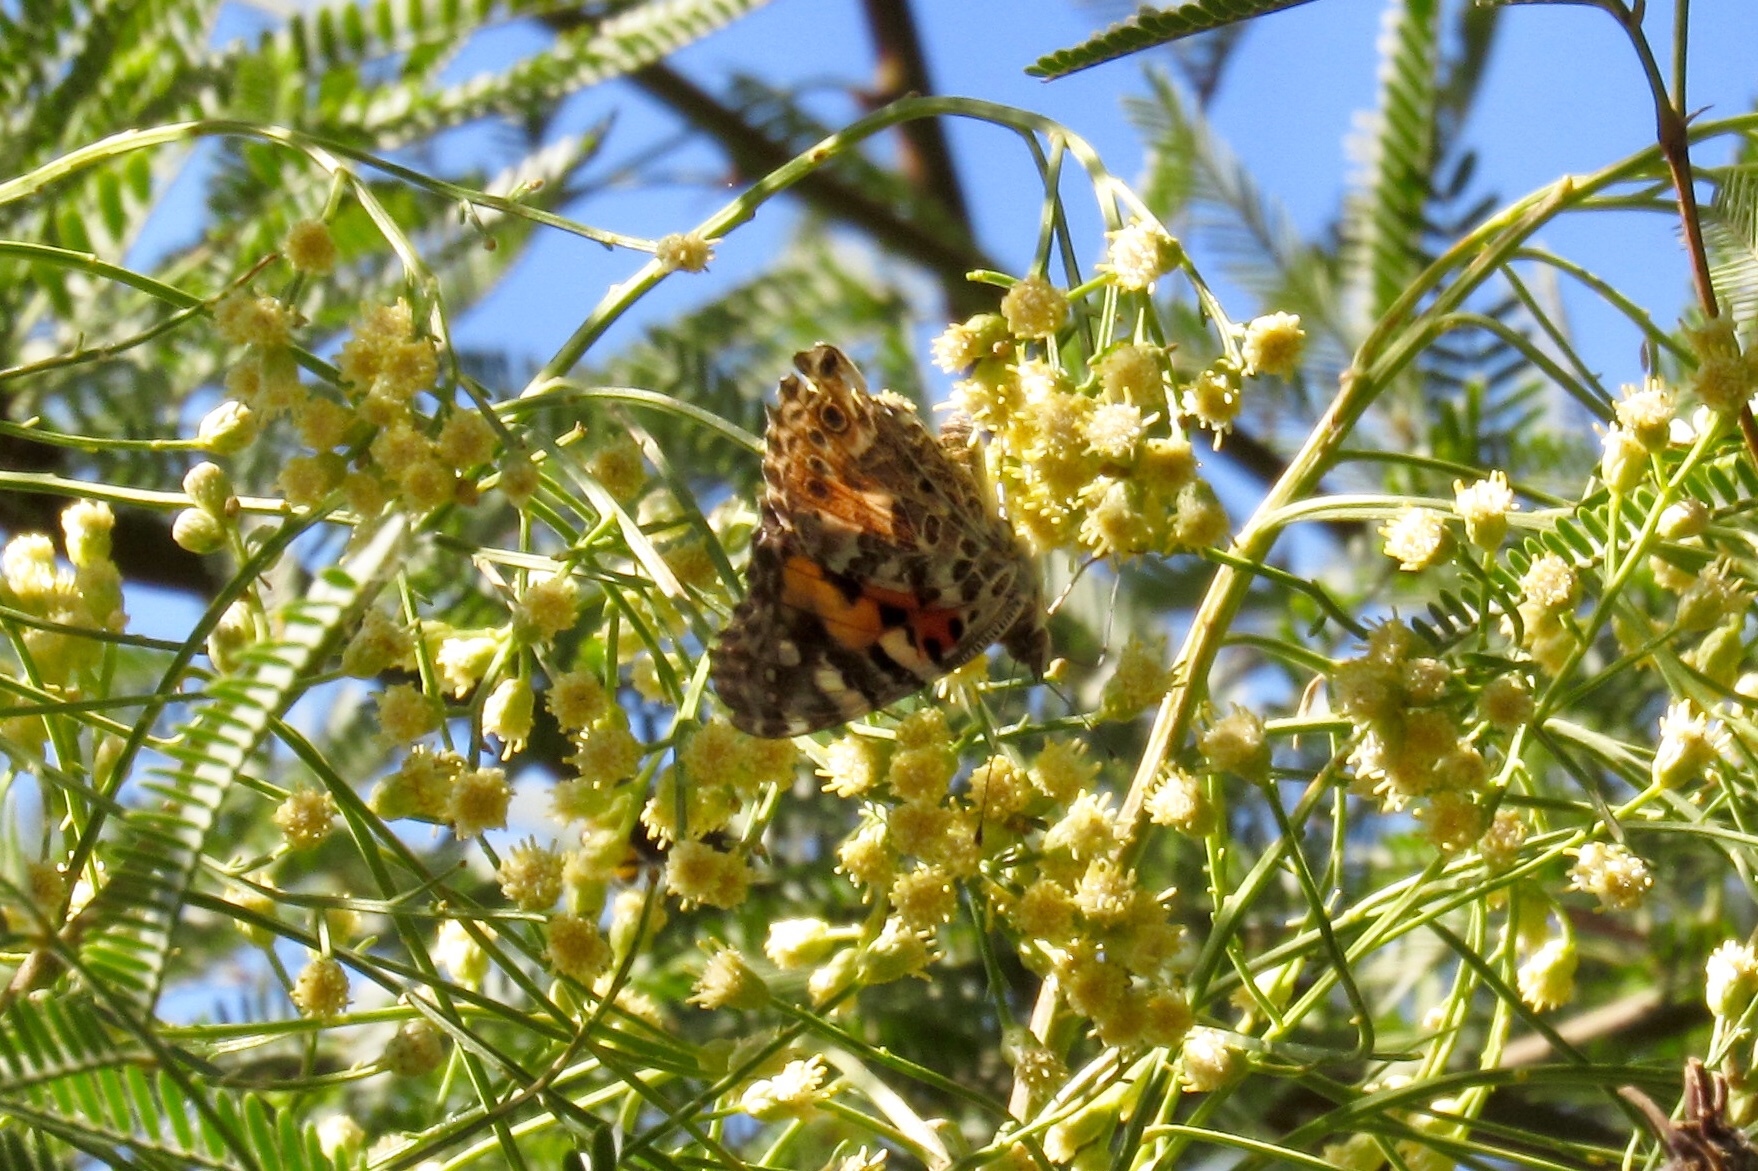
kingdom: Animalia
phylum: Arthropoda
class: Insecta
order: Lepidoptera
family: Nymphalidae
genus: Vanessa
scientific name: Vanessa cardui
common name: Painted lady
